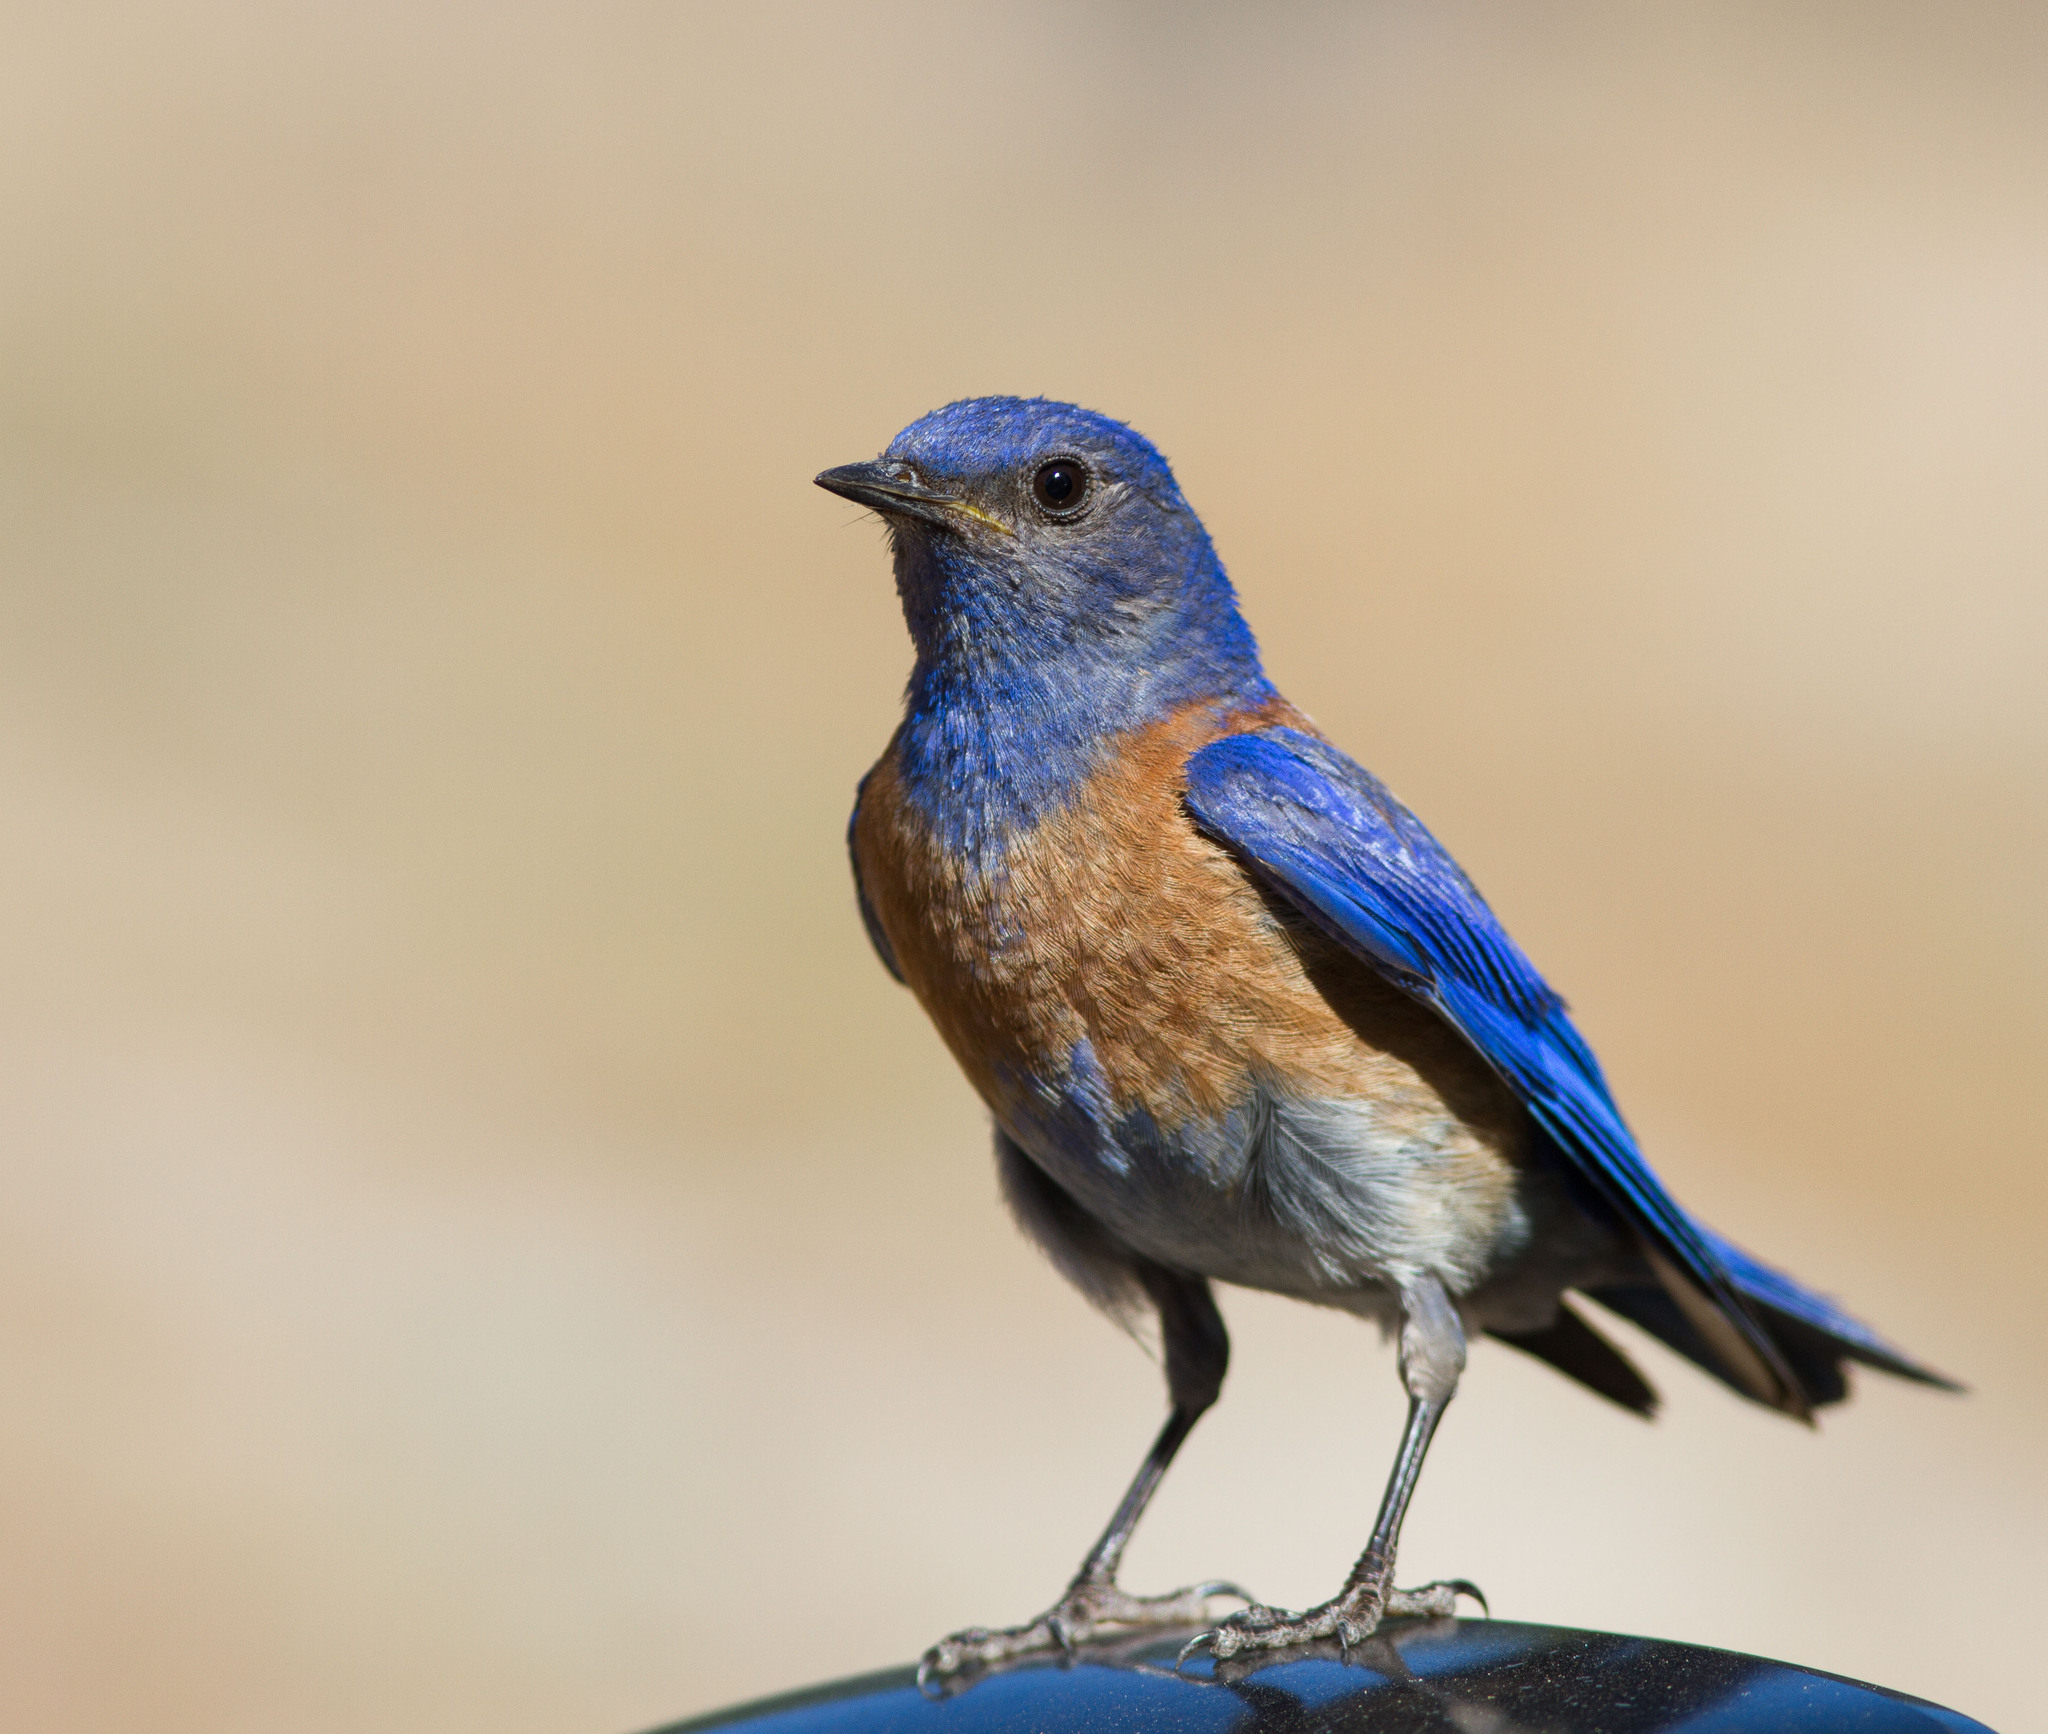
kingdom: Animalia
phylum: Chordata
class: Aves
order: Passeriformes
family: Turdidae
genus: Sialia
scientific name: Sialia mexicana
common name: Western bluebird
